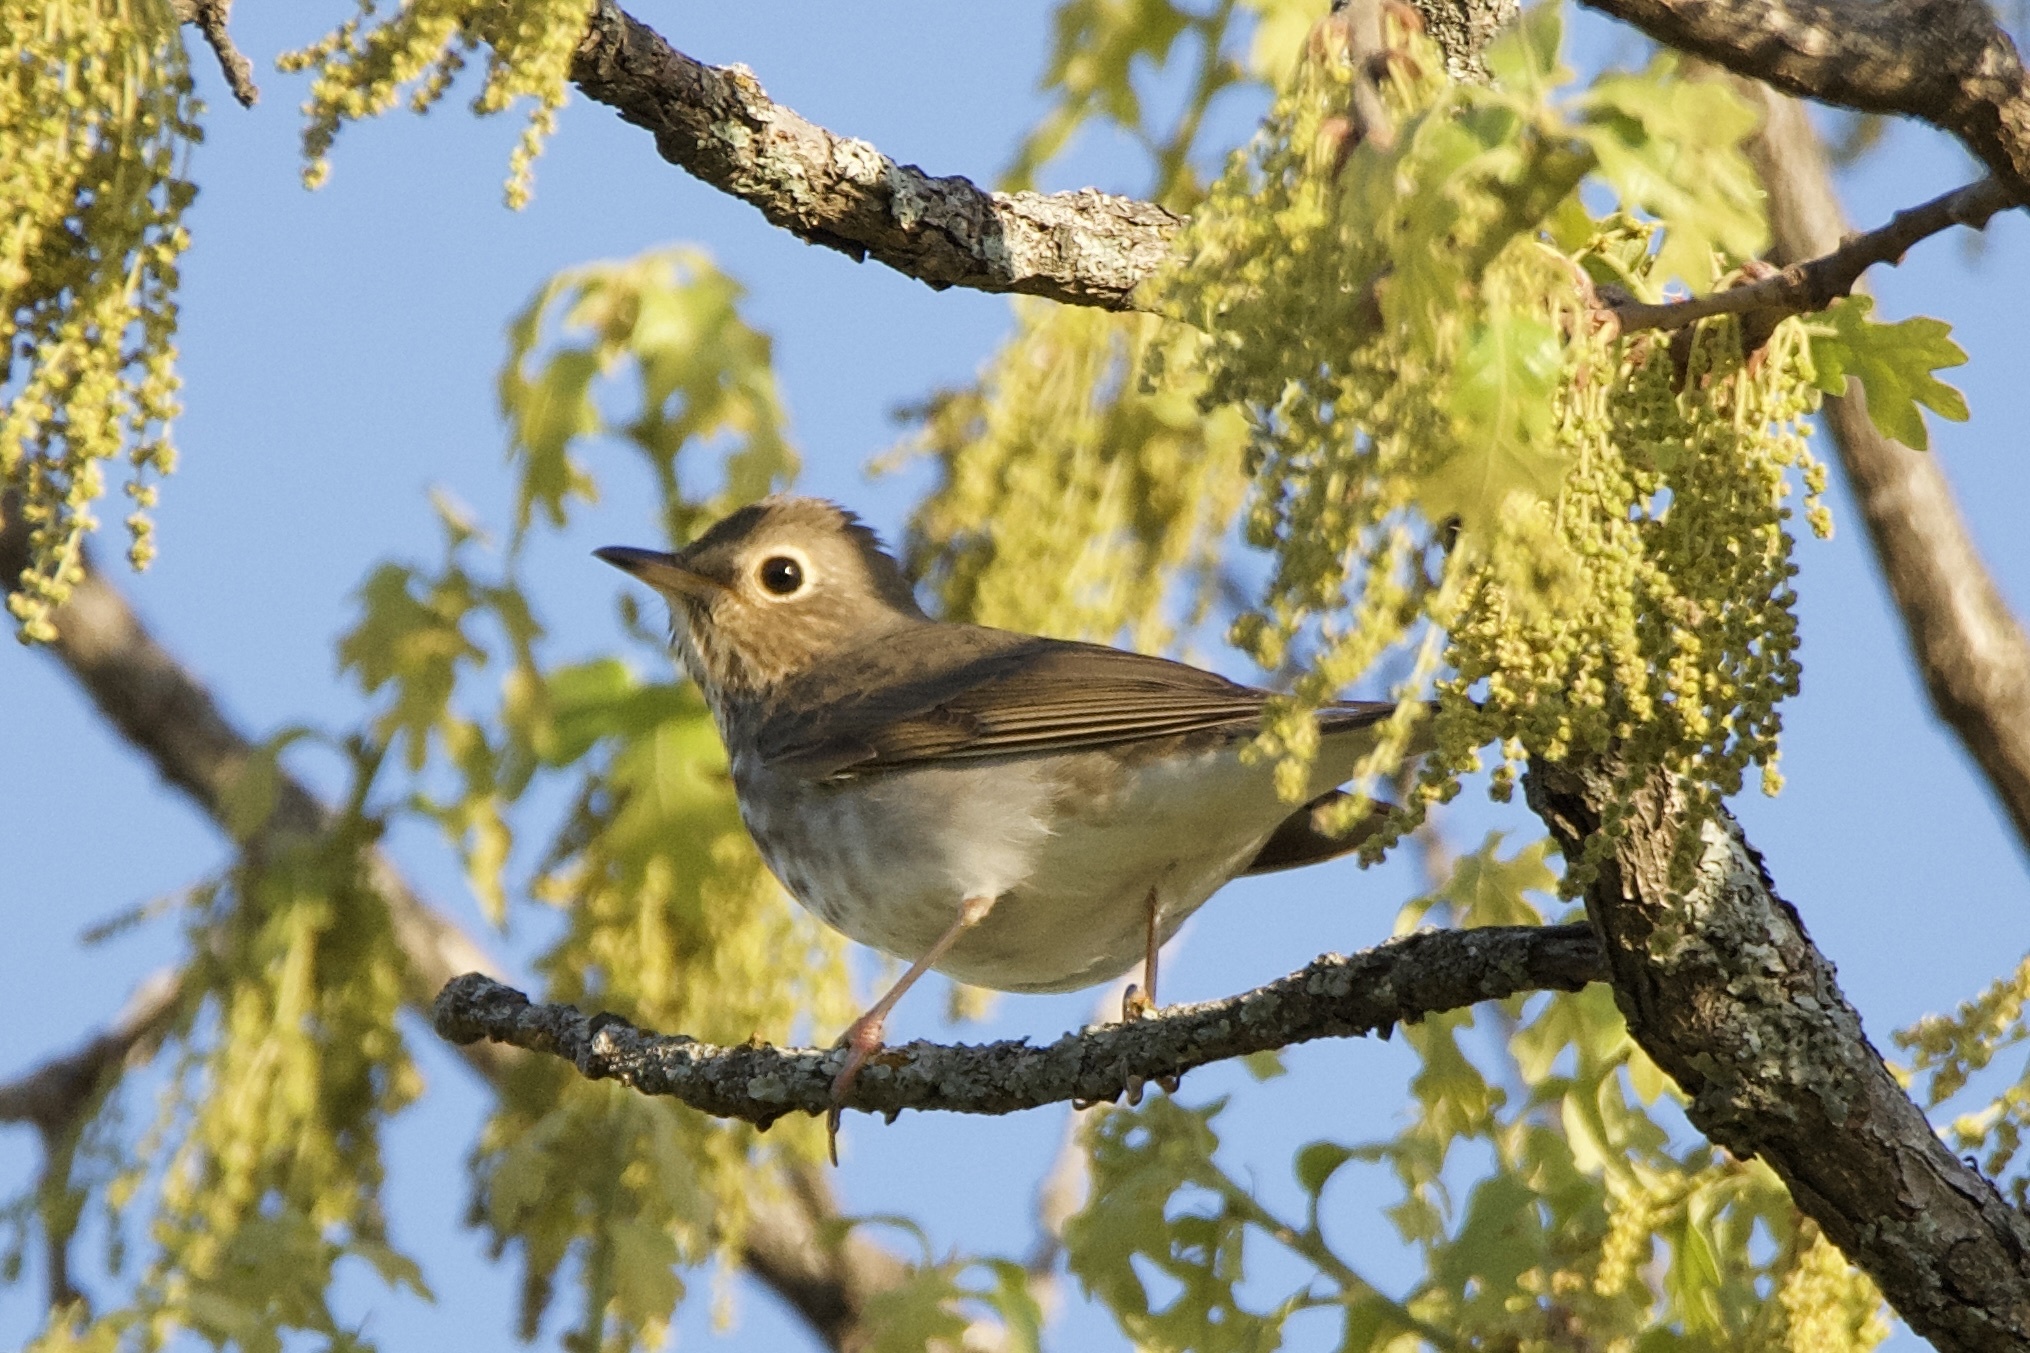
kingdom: Animalia
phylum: Chordata
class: Aves
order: Passeriformes
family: Turdidae
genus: Catharus
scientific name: Catharus ustulatus
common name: Swainson's thrush
